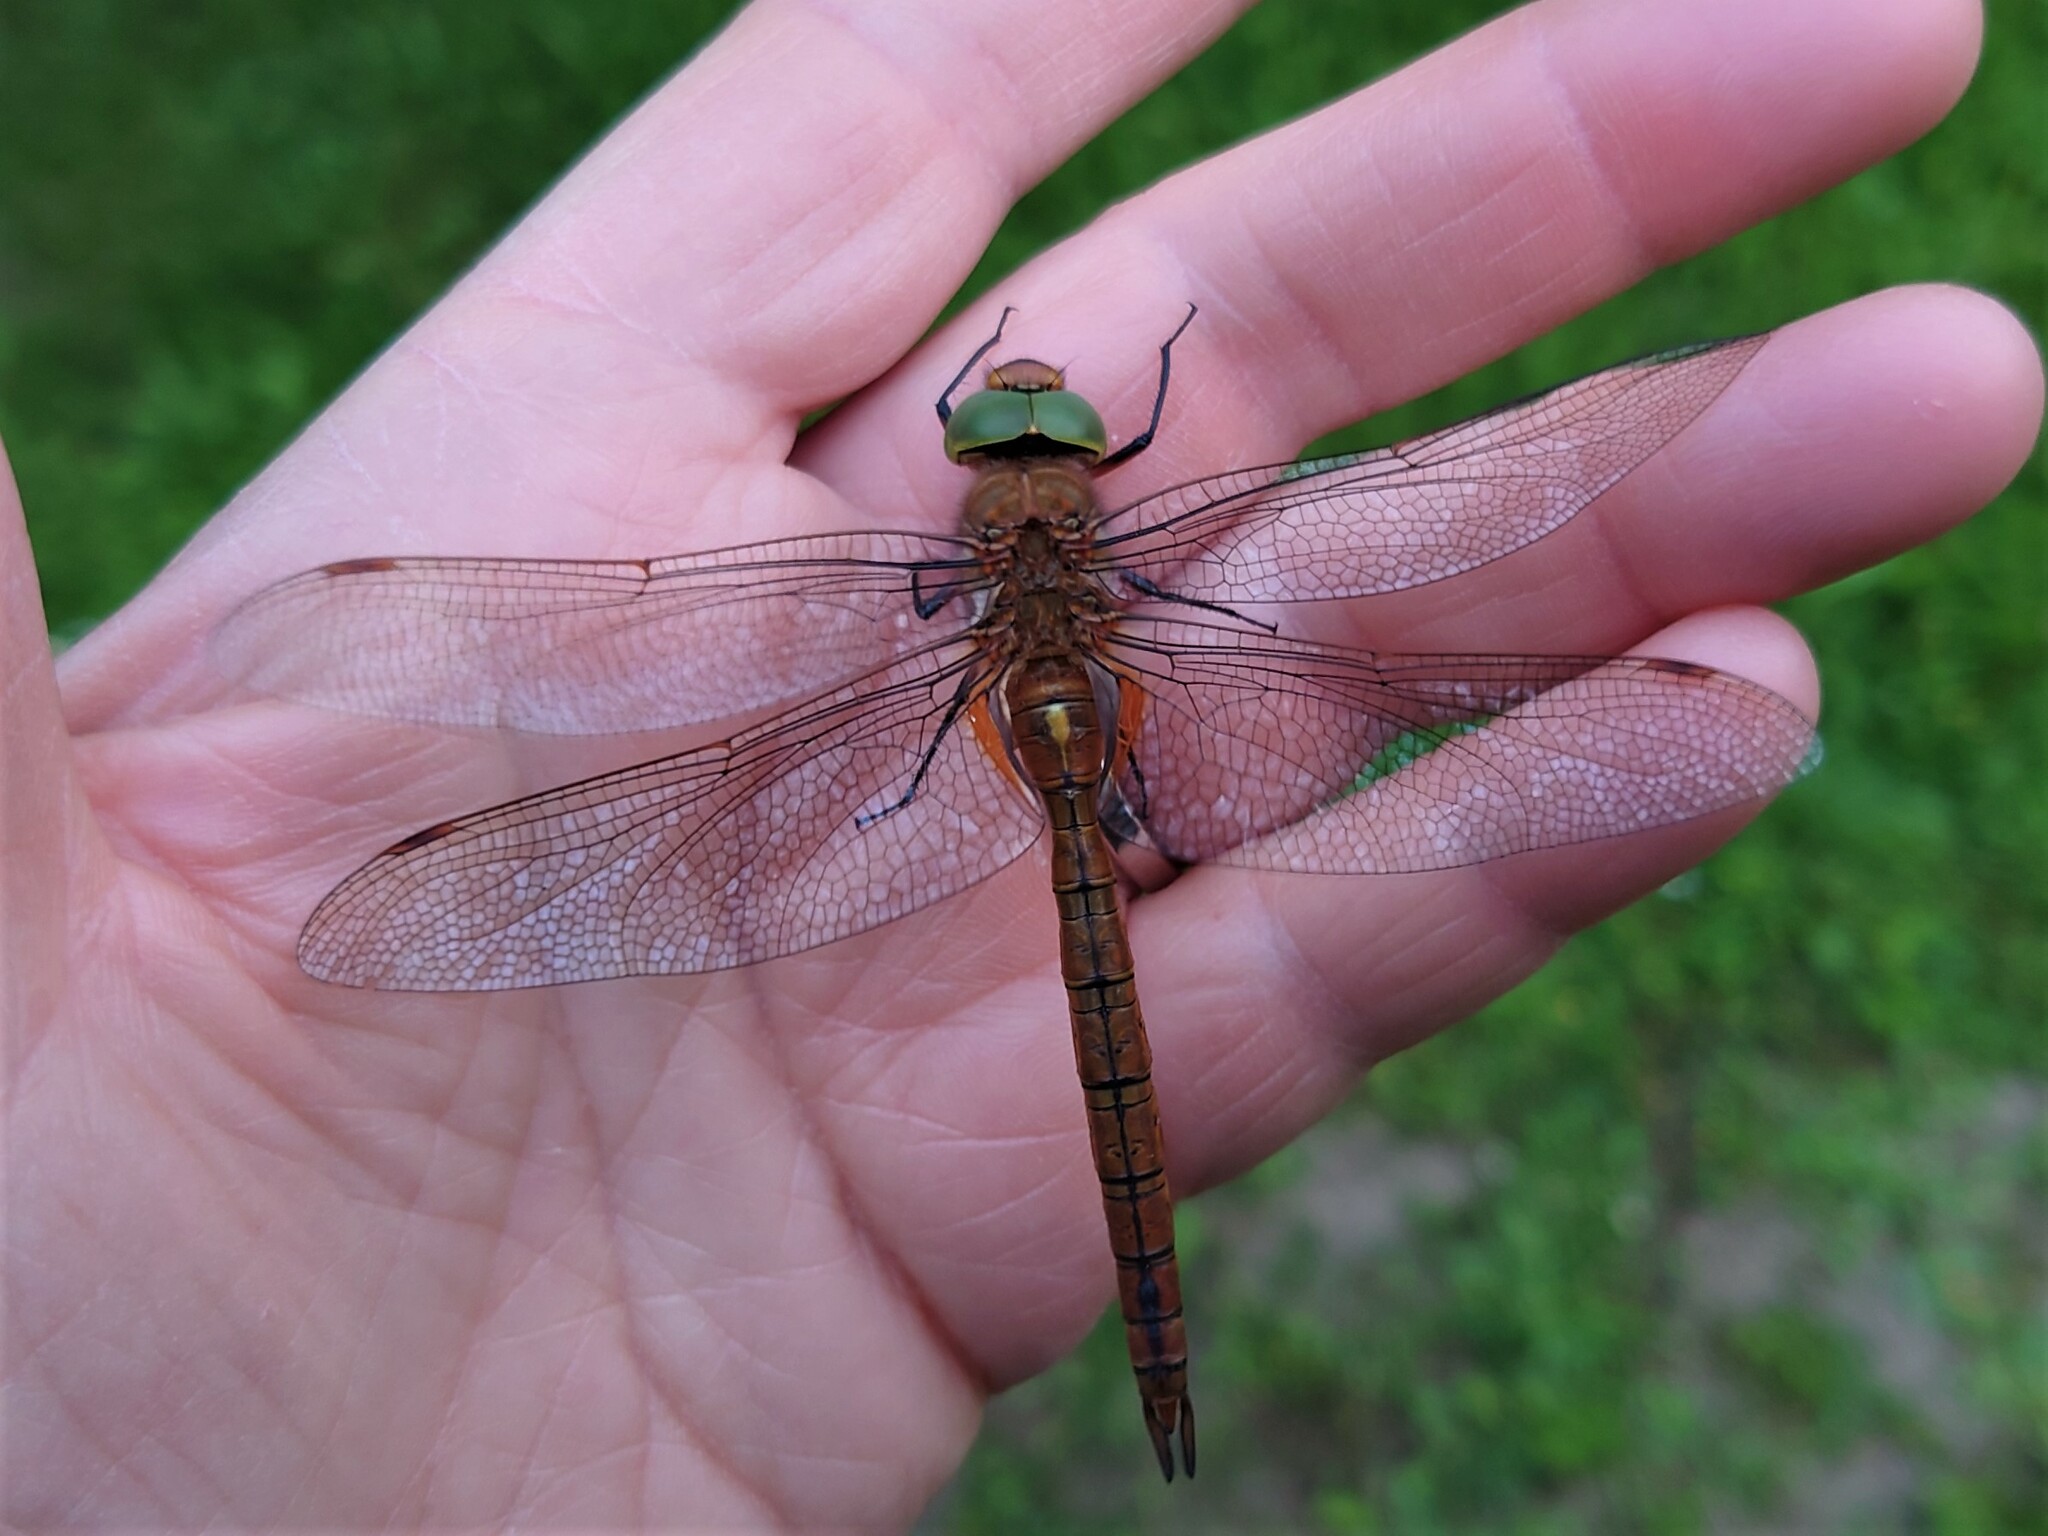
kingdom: Animalia
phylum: Arthropoda
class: Insecta
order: Odonata
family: Aeshnidae
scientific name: Aeshnidae
